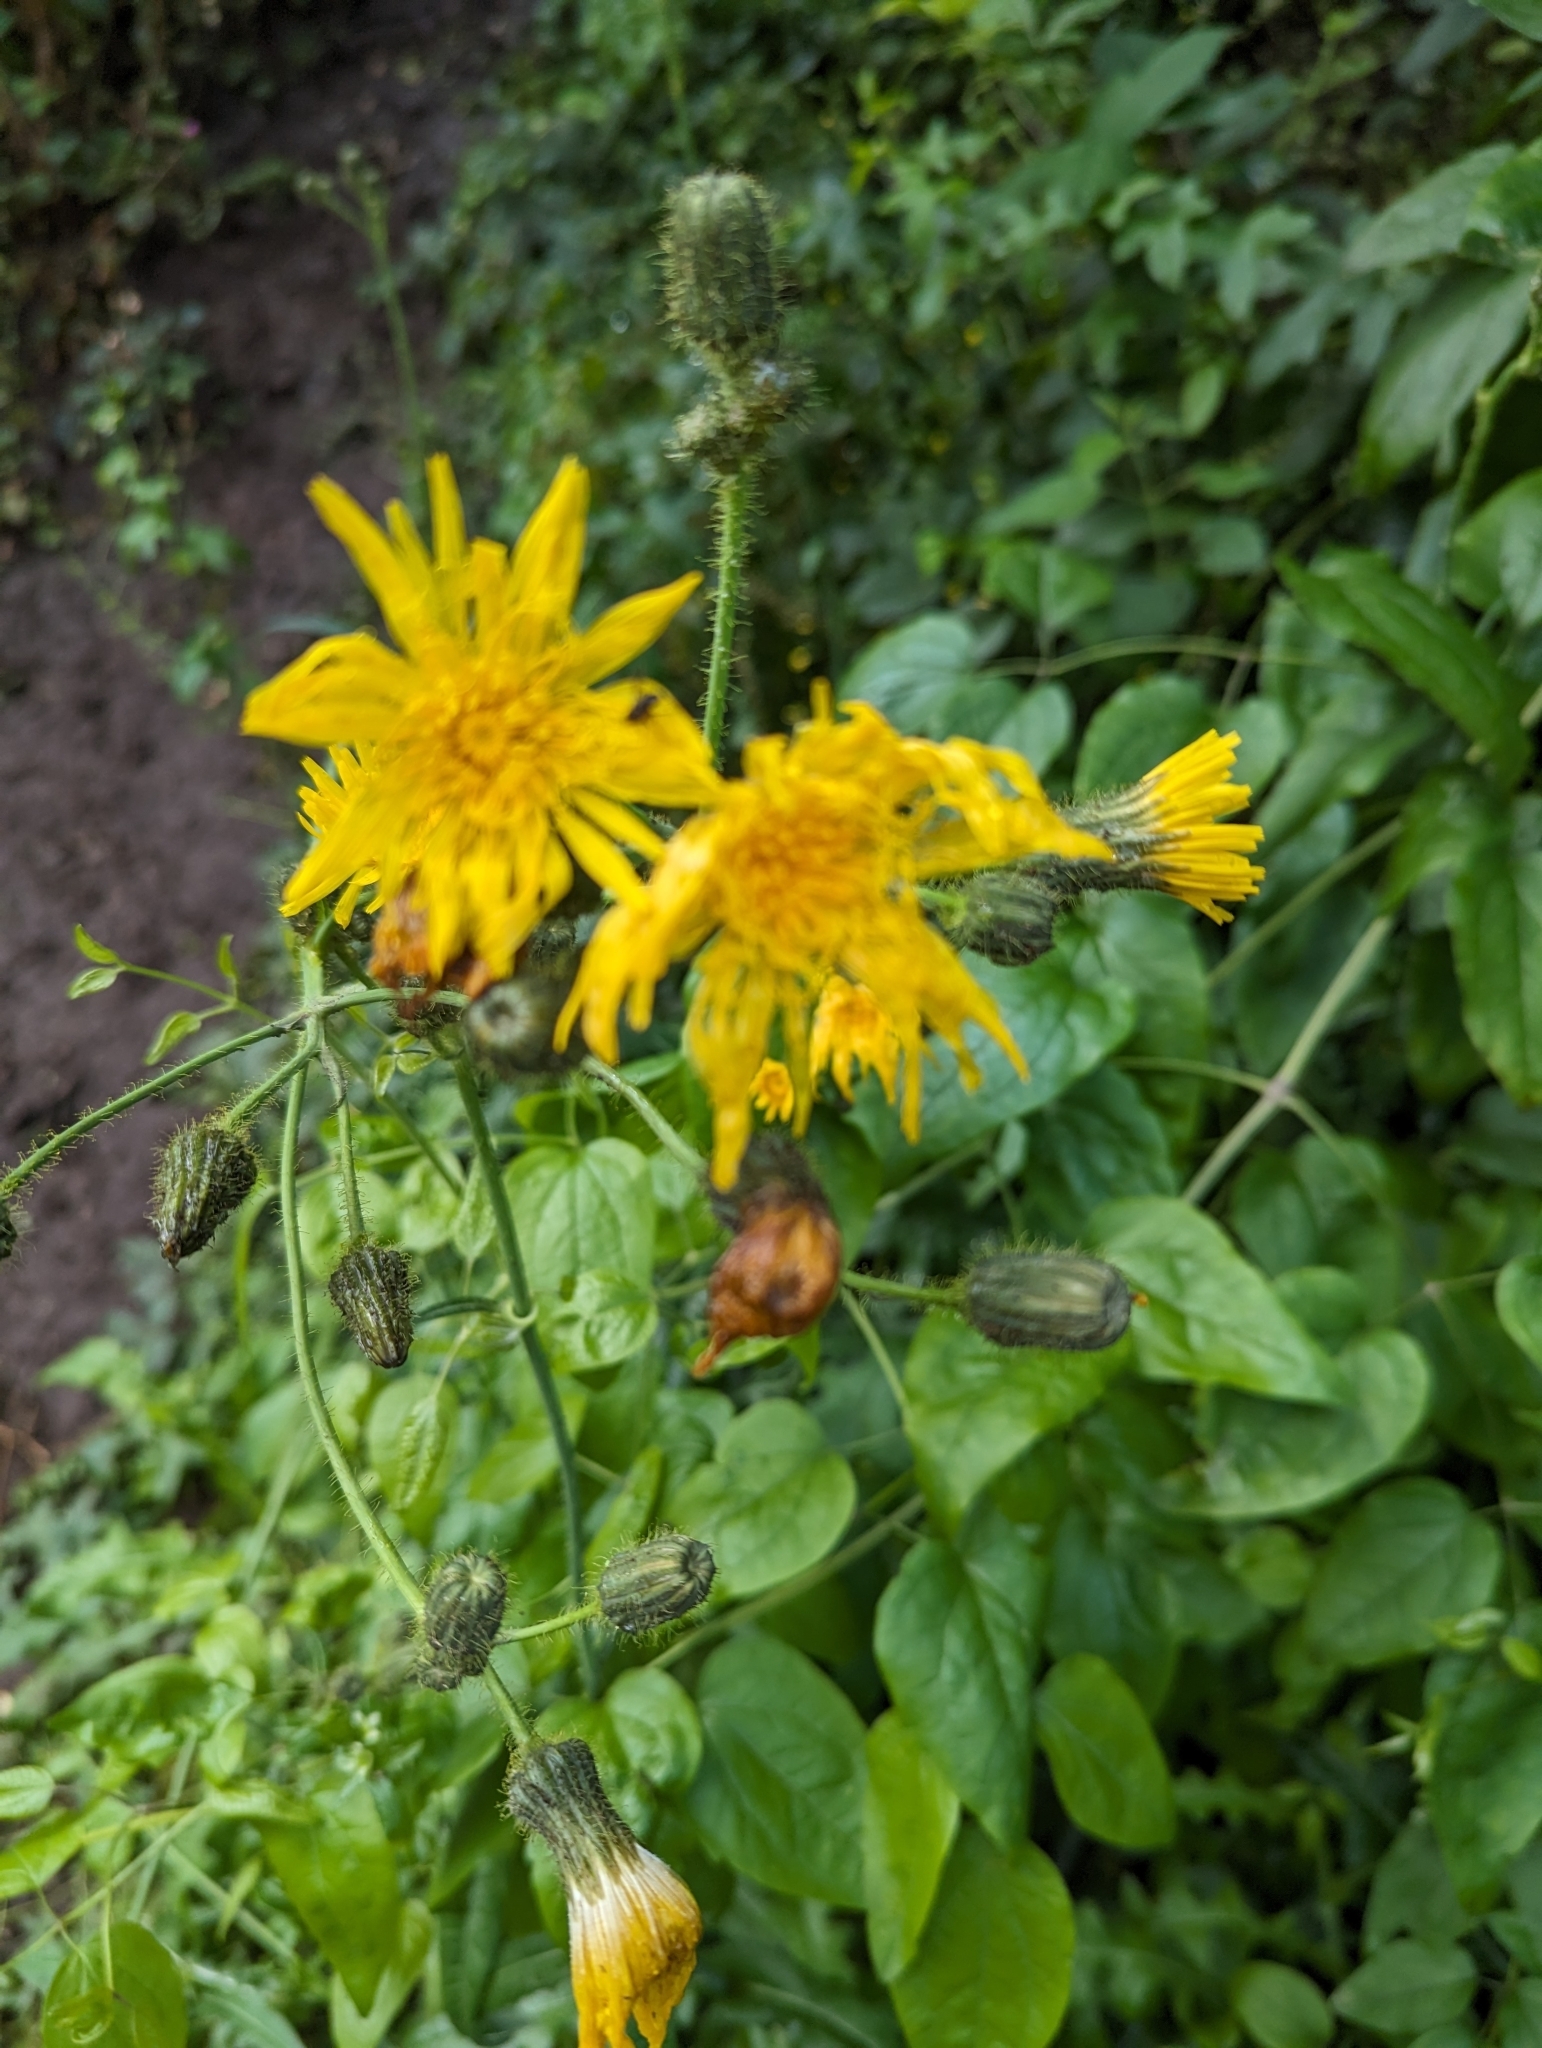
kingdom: Plantae
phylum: Tracheophyta
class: Magnoliopsida
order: Asterales
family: Asteraceae
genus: Sonchus
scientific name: Sonchus arvensis
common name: Perennial sow-thistle
